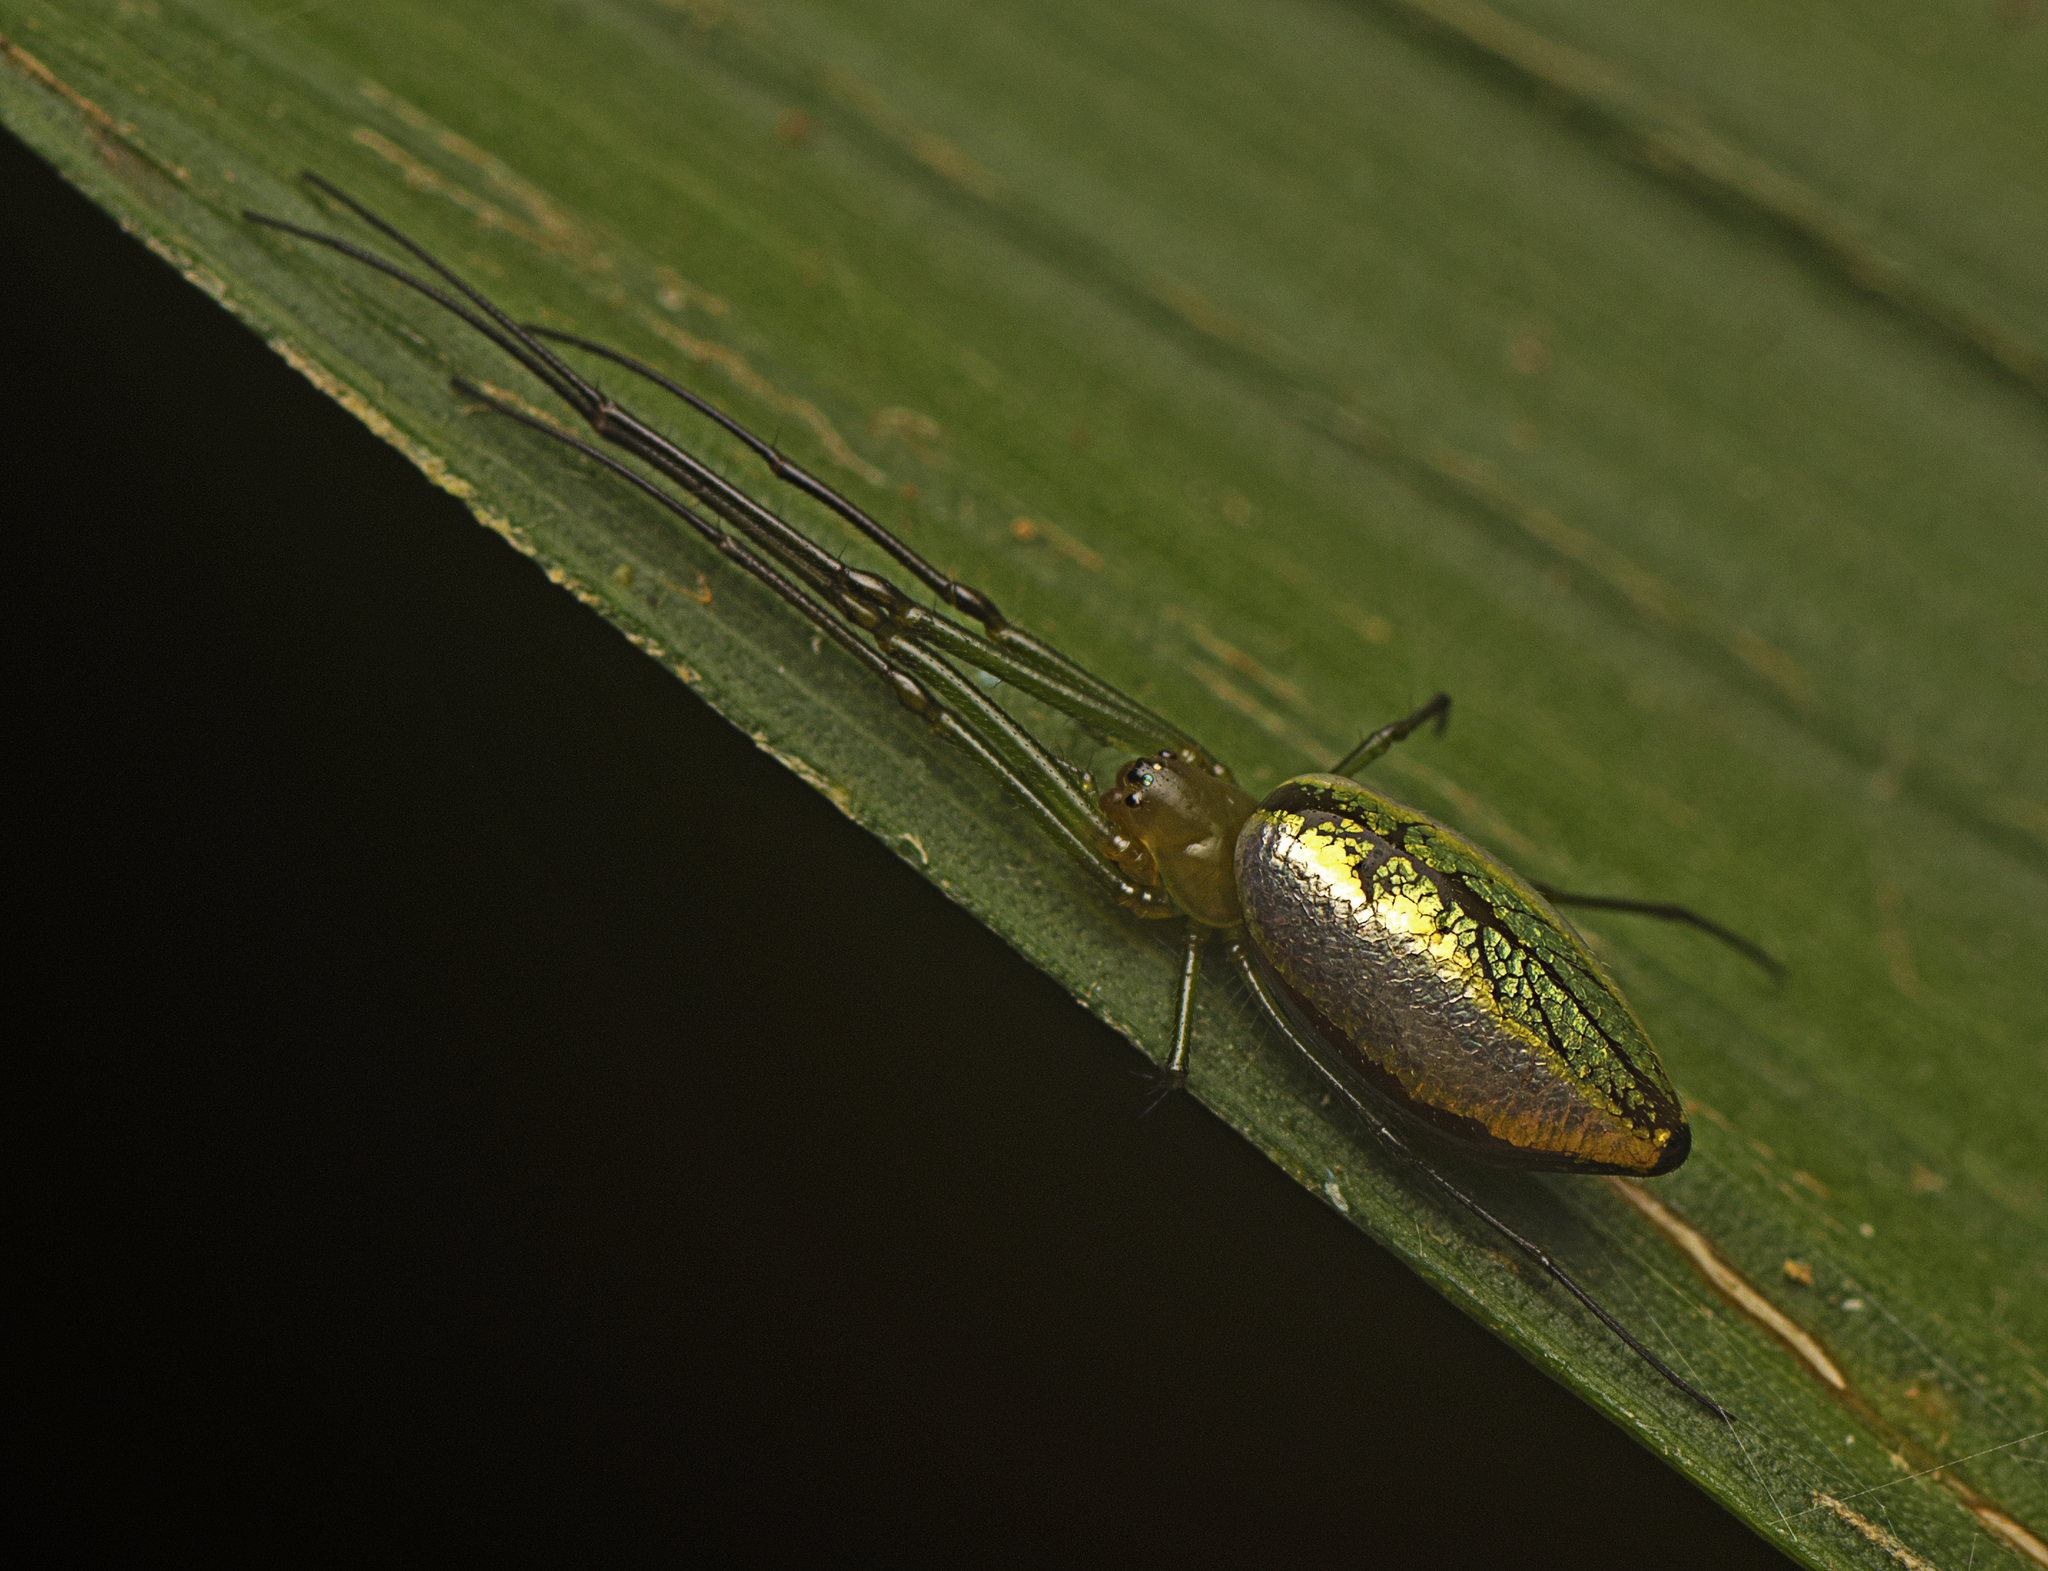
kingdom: Animalia
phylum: Arthropoda
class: Arachnida
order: Araneae
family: Tetragnathidae
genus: Mesida
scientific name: Mesida argentiopunctata
